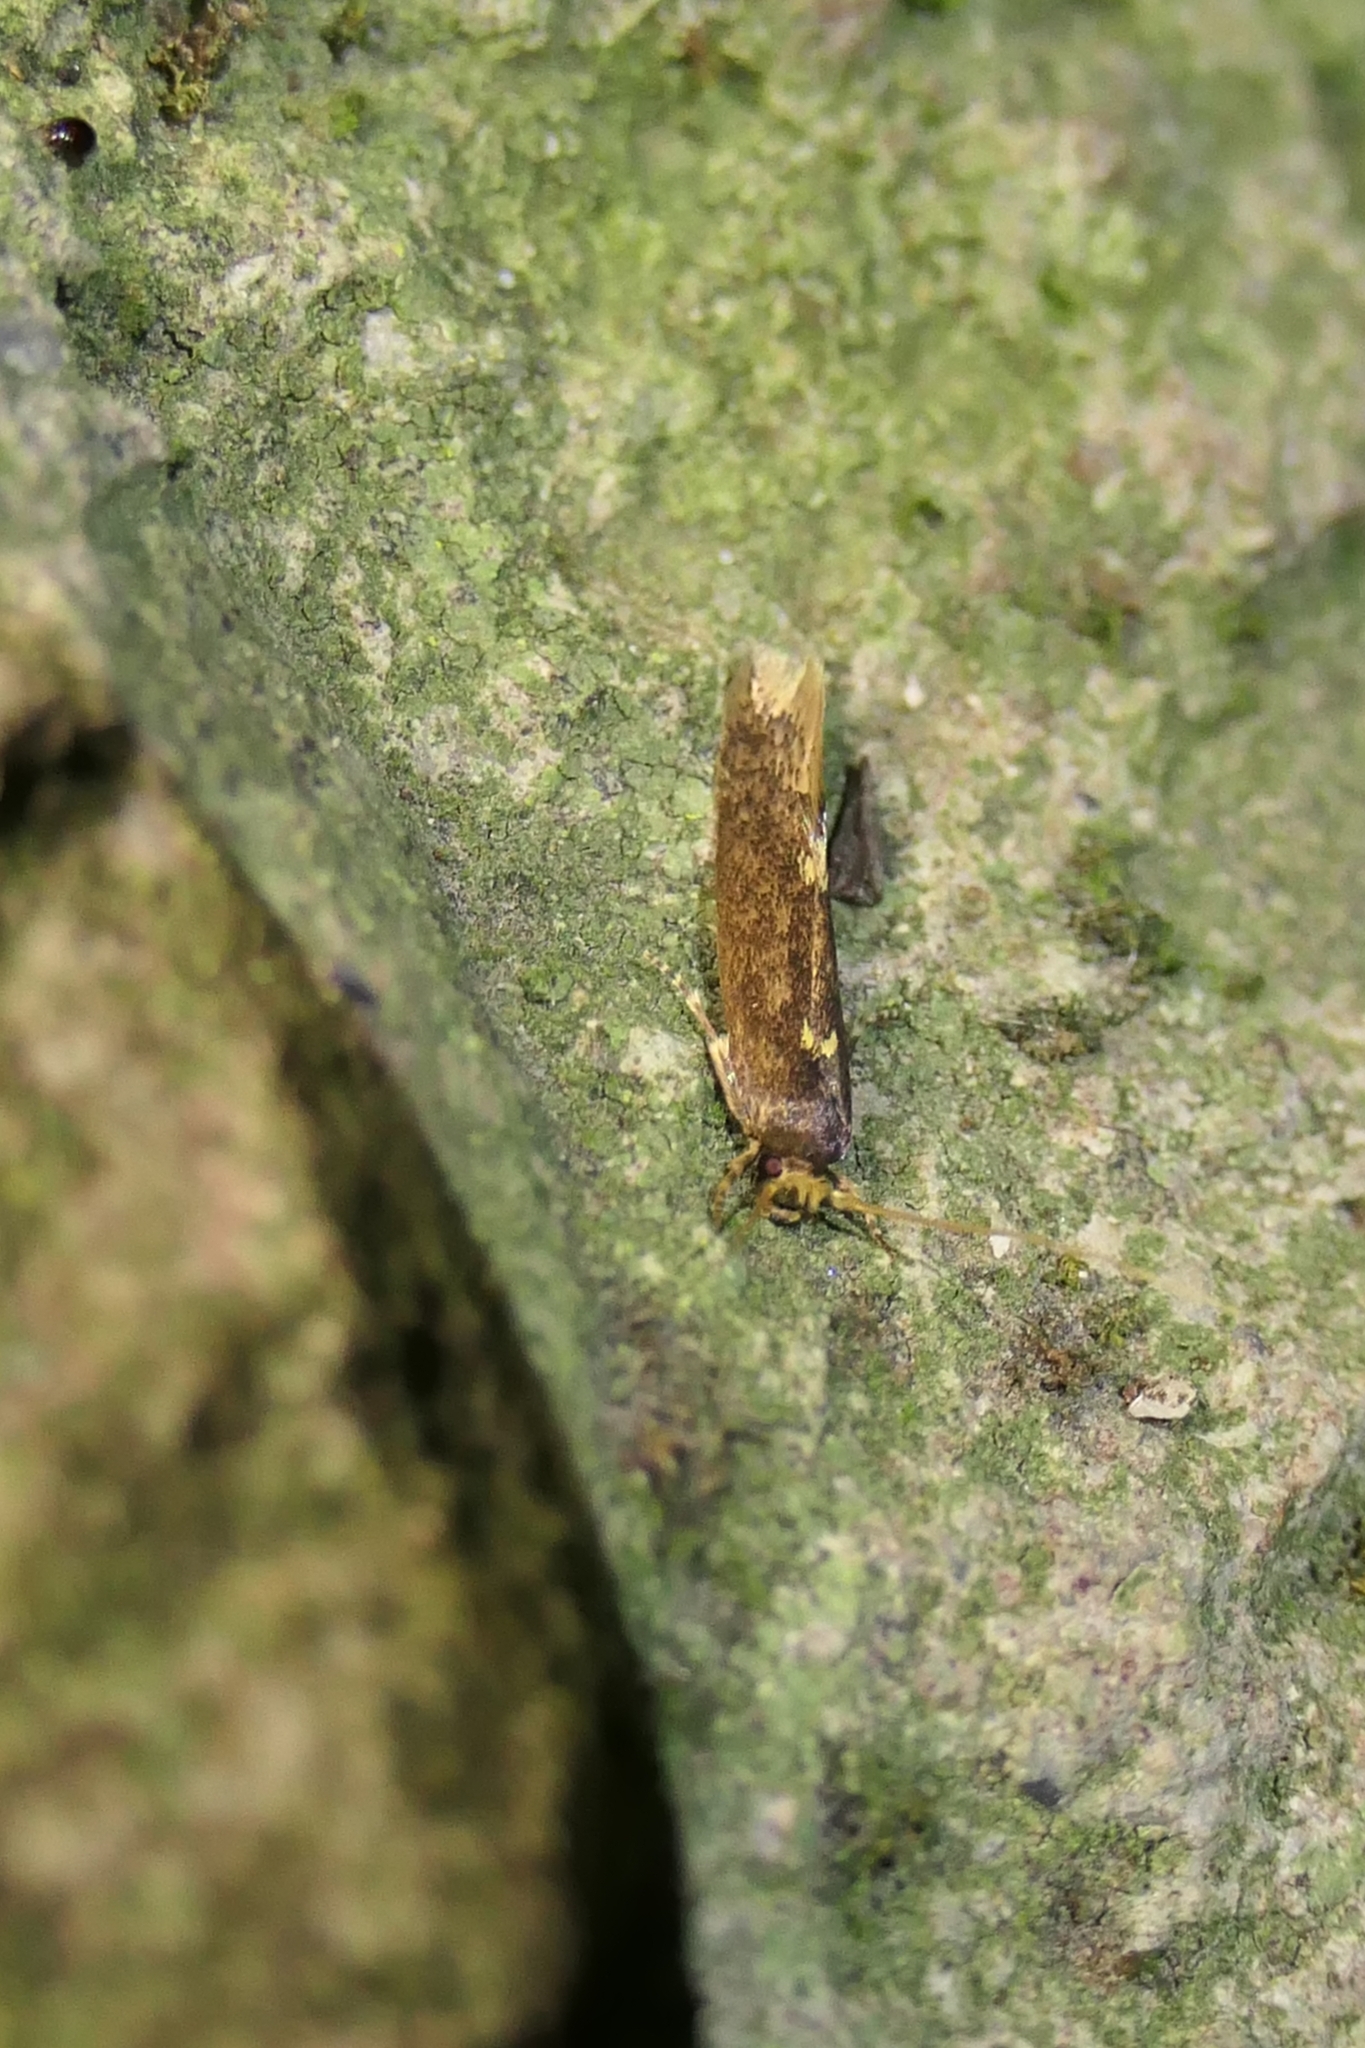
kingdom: Animalia
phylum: Arthropoda
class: Insecta
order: Lepidoptera
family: Tineidae
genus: Opogona
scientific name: Opogona omoscopa
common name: Moth
